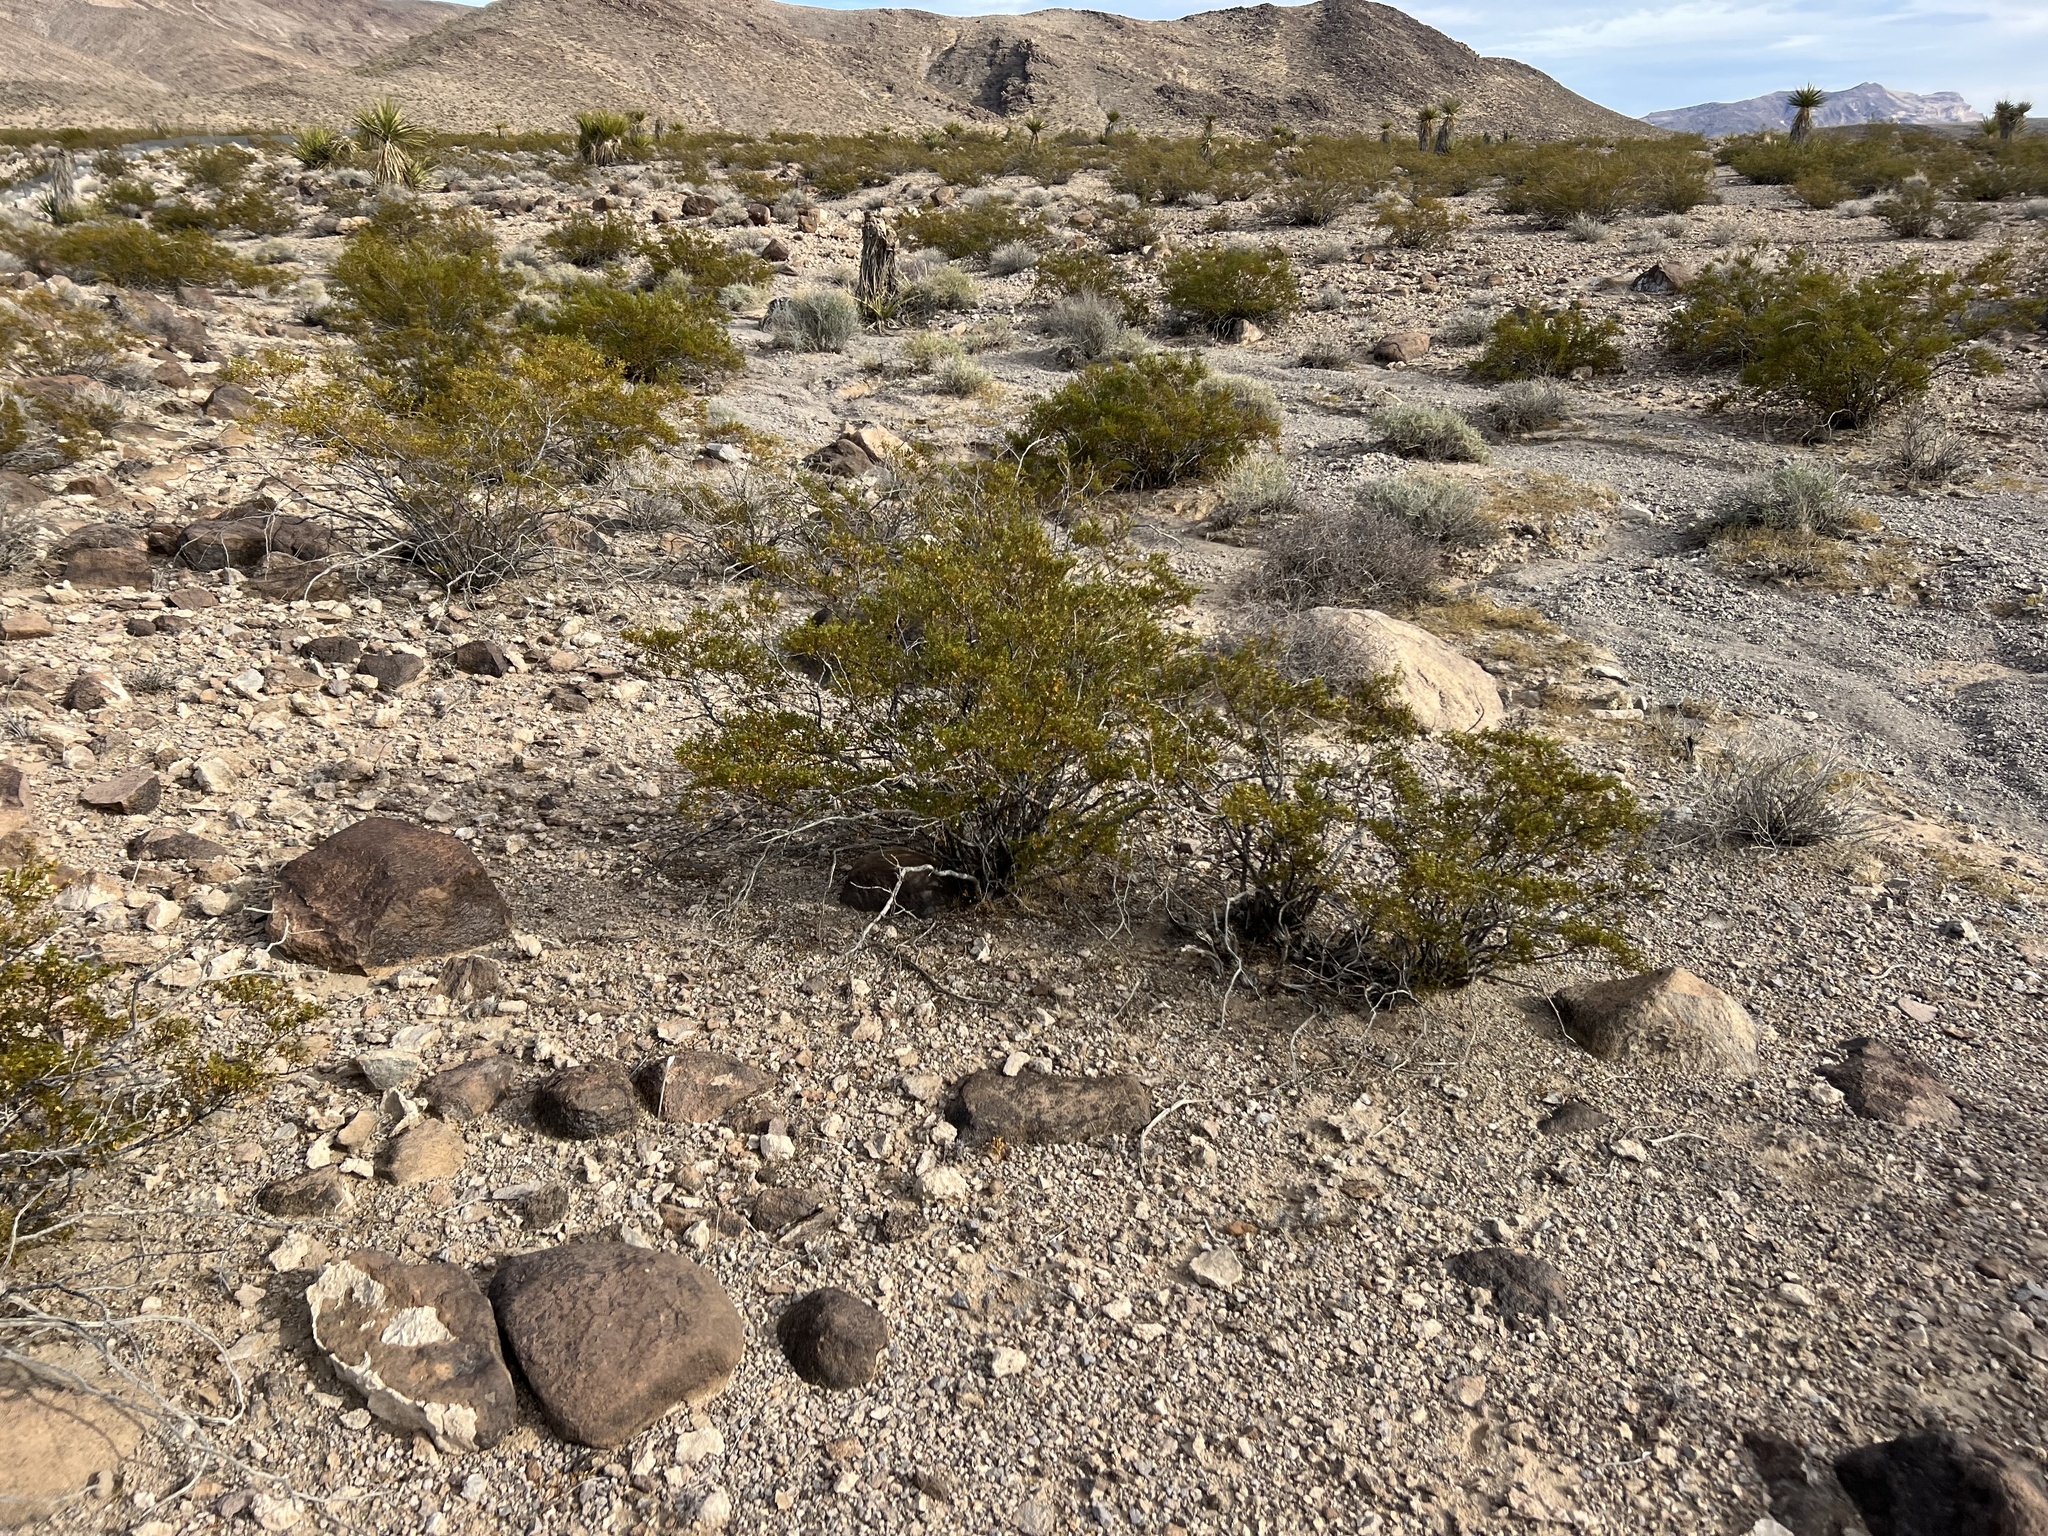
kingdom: Plantae
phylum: Tracheophyta
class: Magnoliopsida
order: Zygophyllales
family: Zygophyllaceae
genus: Larrea
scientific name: Larrea tridentata
